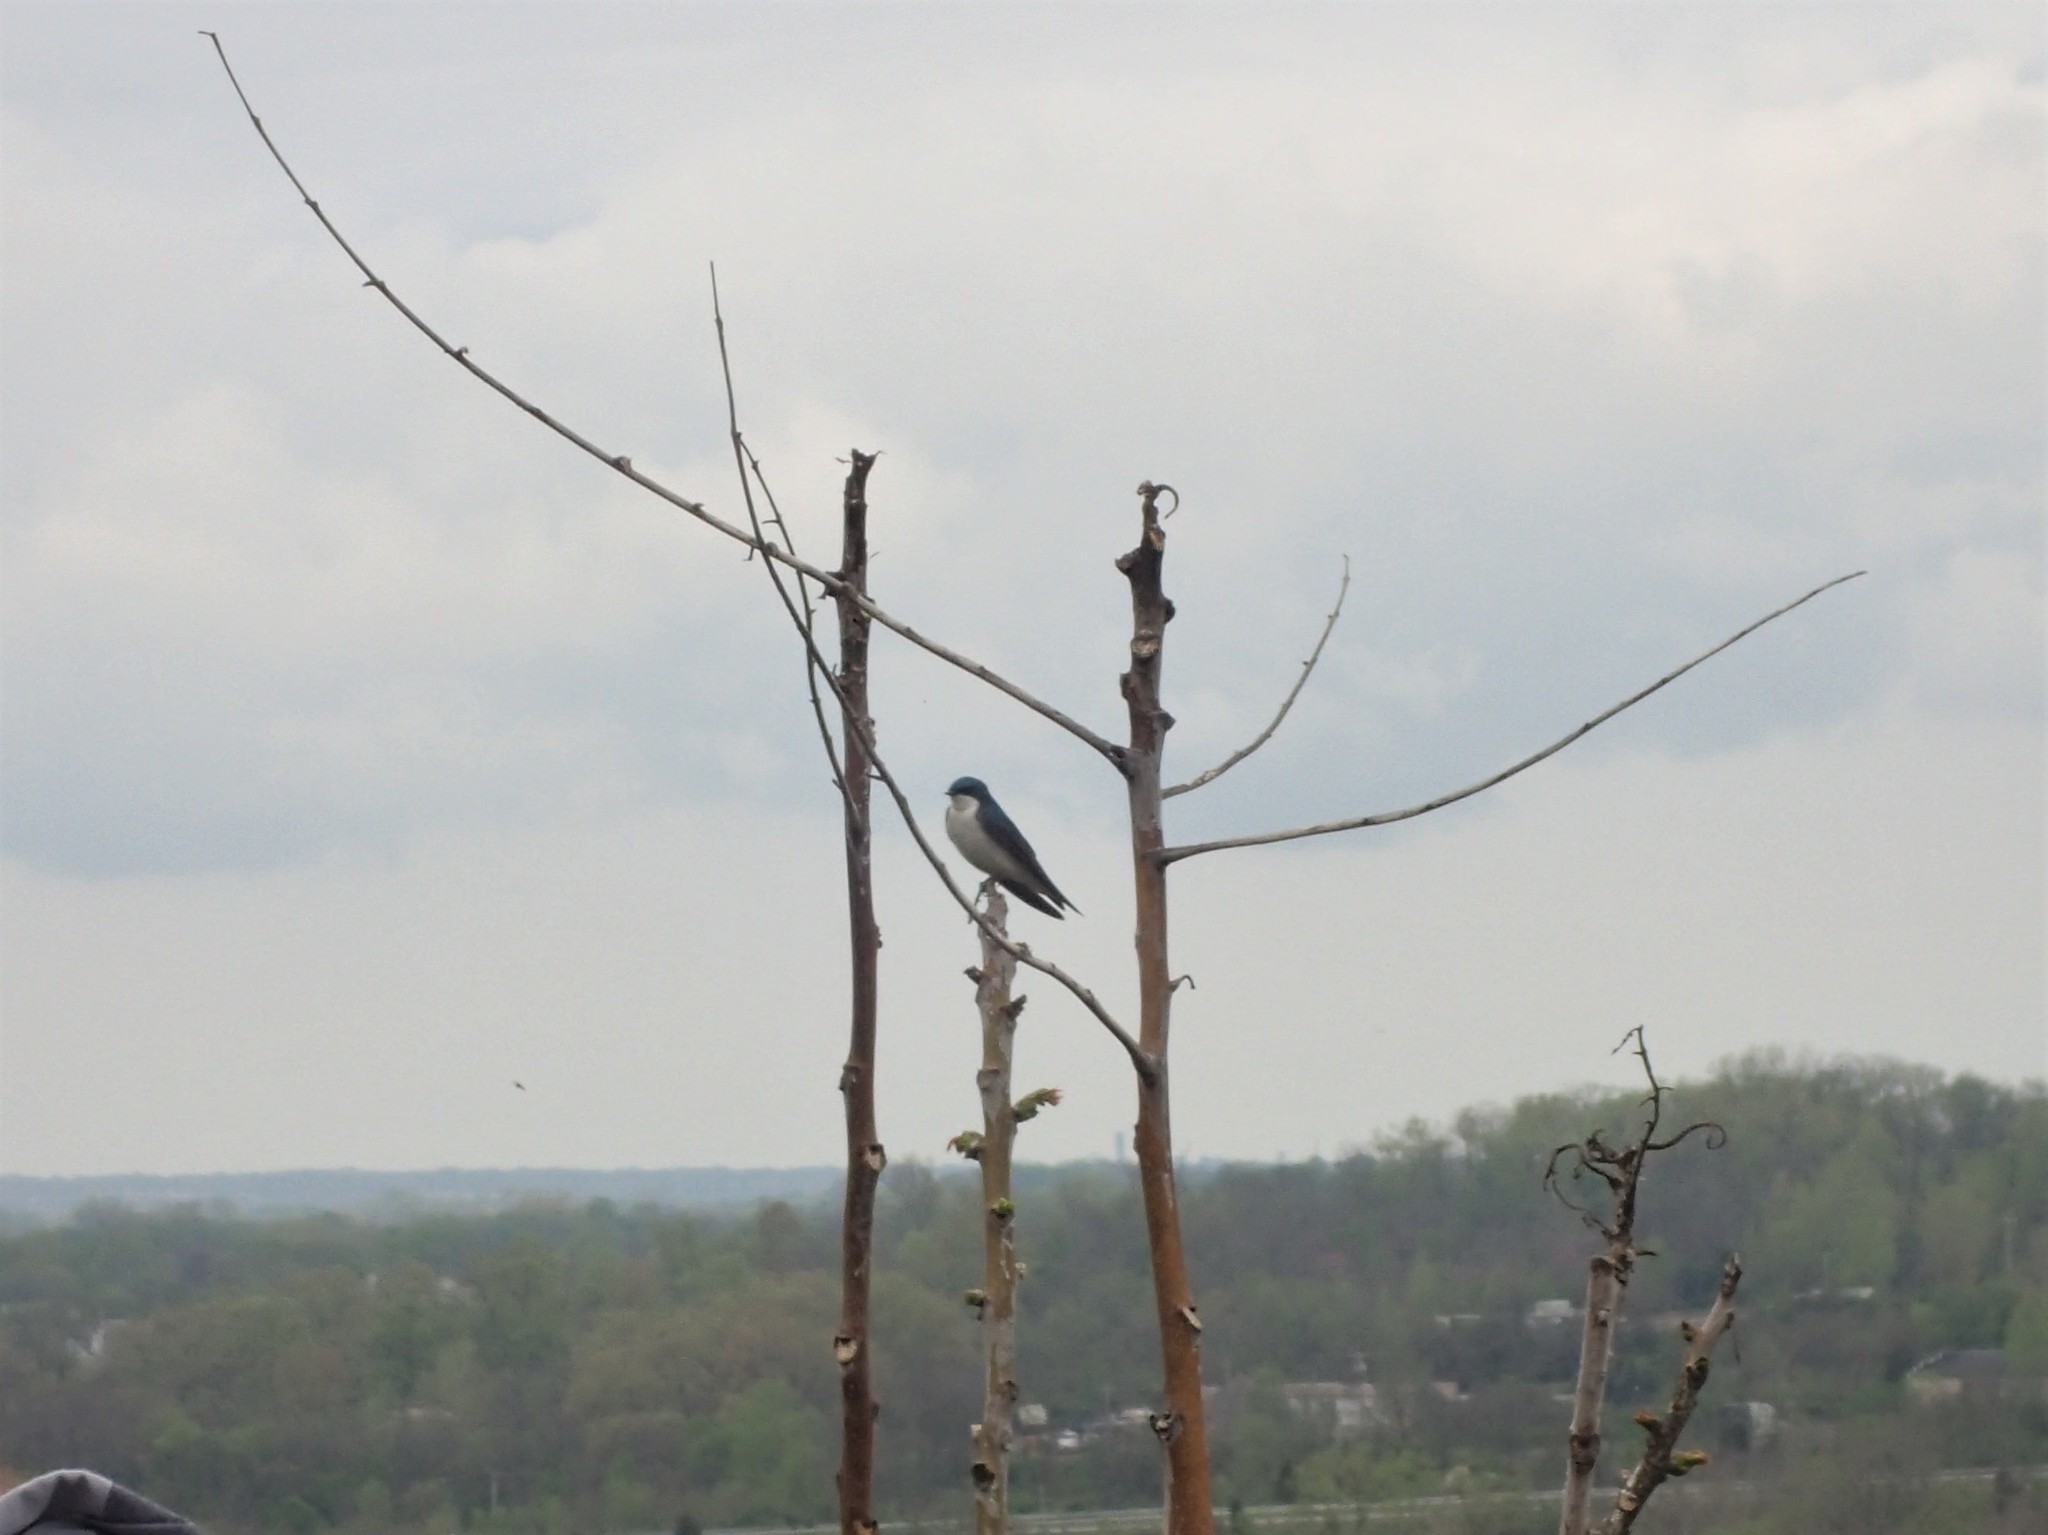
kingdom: Animalia
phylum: Chordata
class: Aves
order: Passeriformes
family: Hirundinidae
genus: Tachycineta
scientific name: Tachycineta bicolor
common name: Tree swallow
